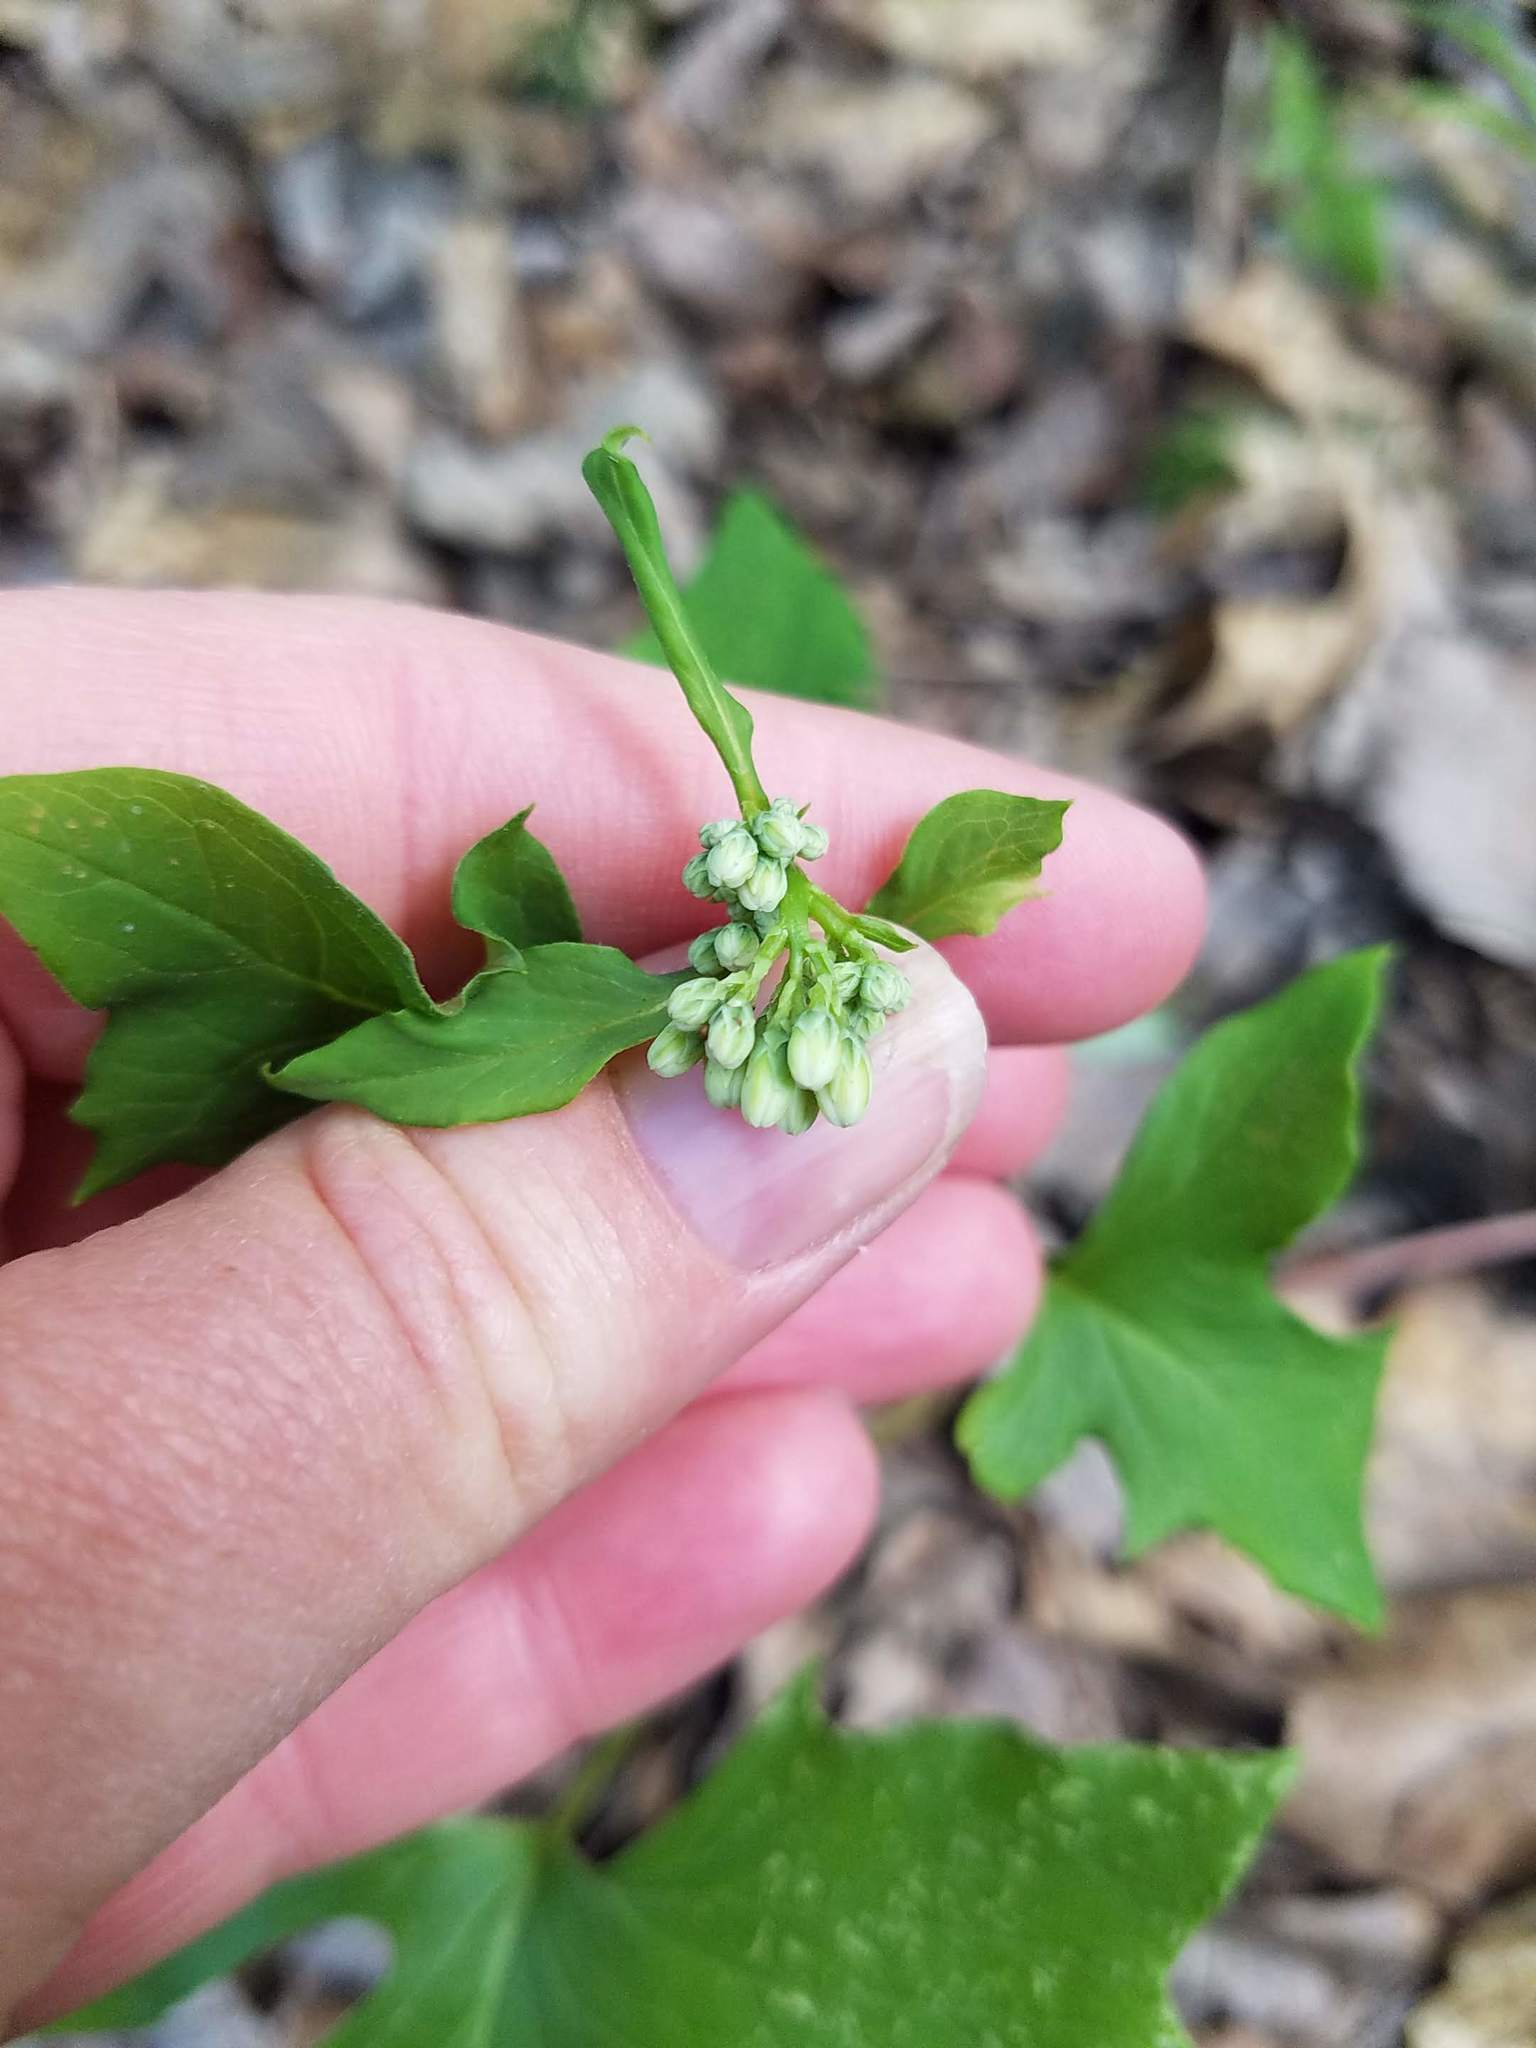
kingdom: Plantae
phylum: Tracheophyta
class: Magnoliopsida
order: Asterales
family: Asteraceae
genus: Nabalus
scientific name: Nabalus albus
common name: White rattlesnakeroot
